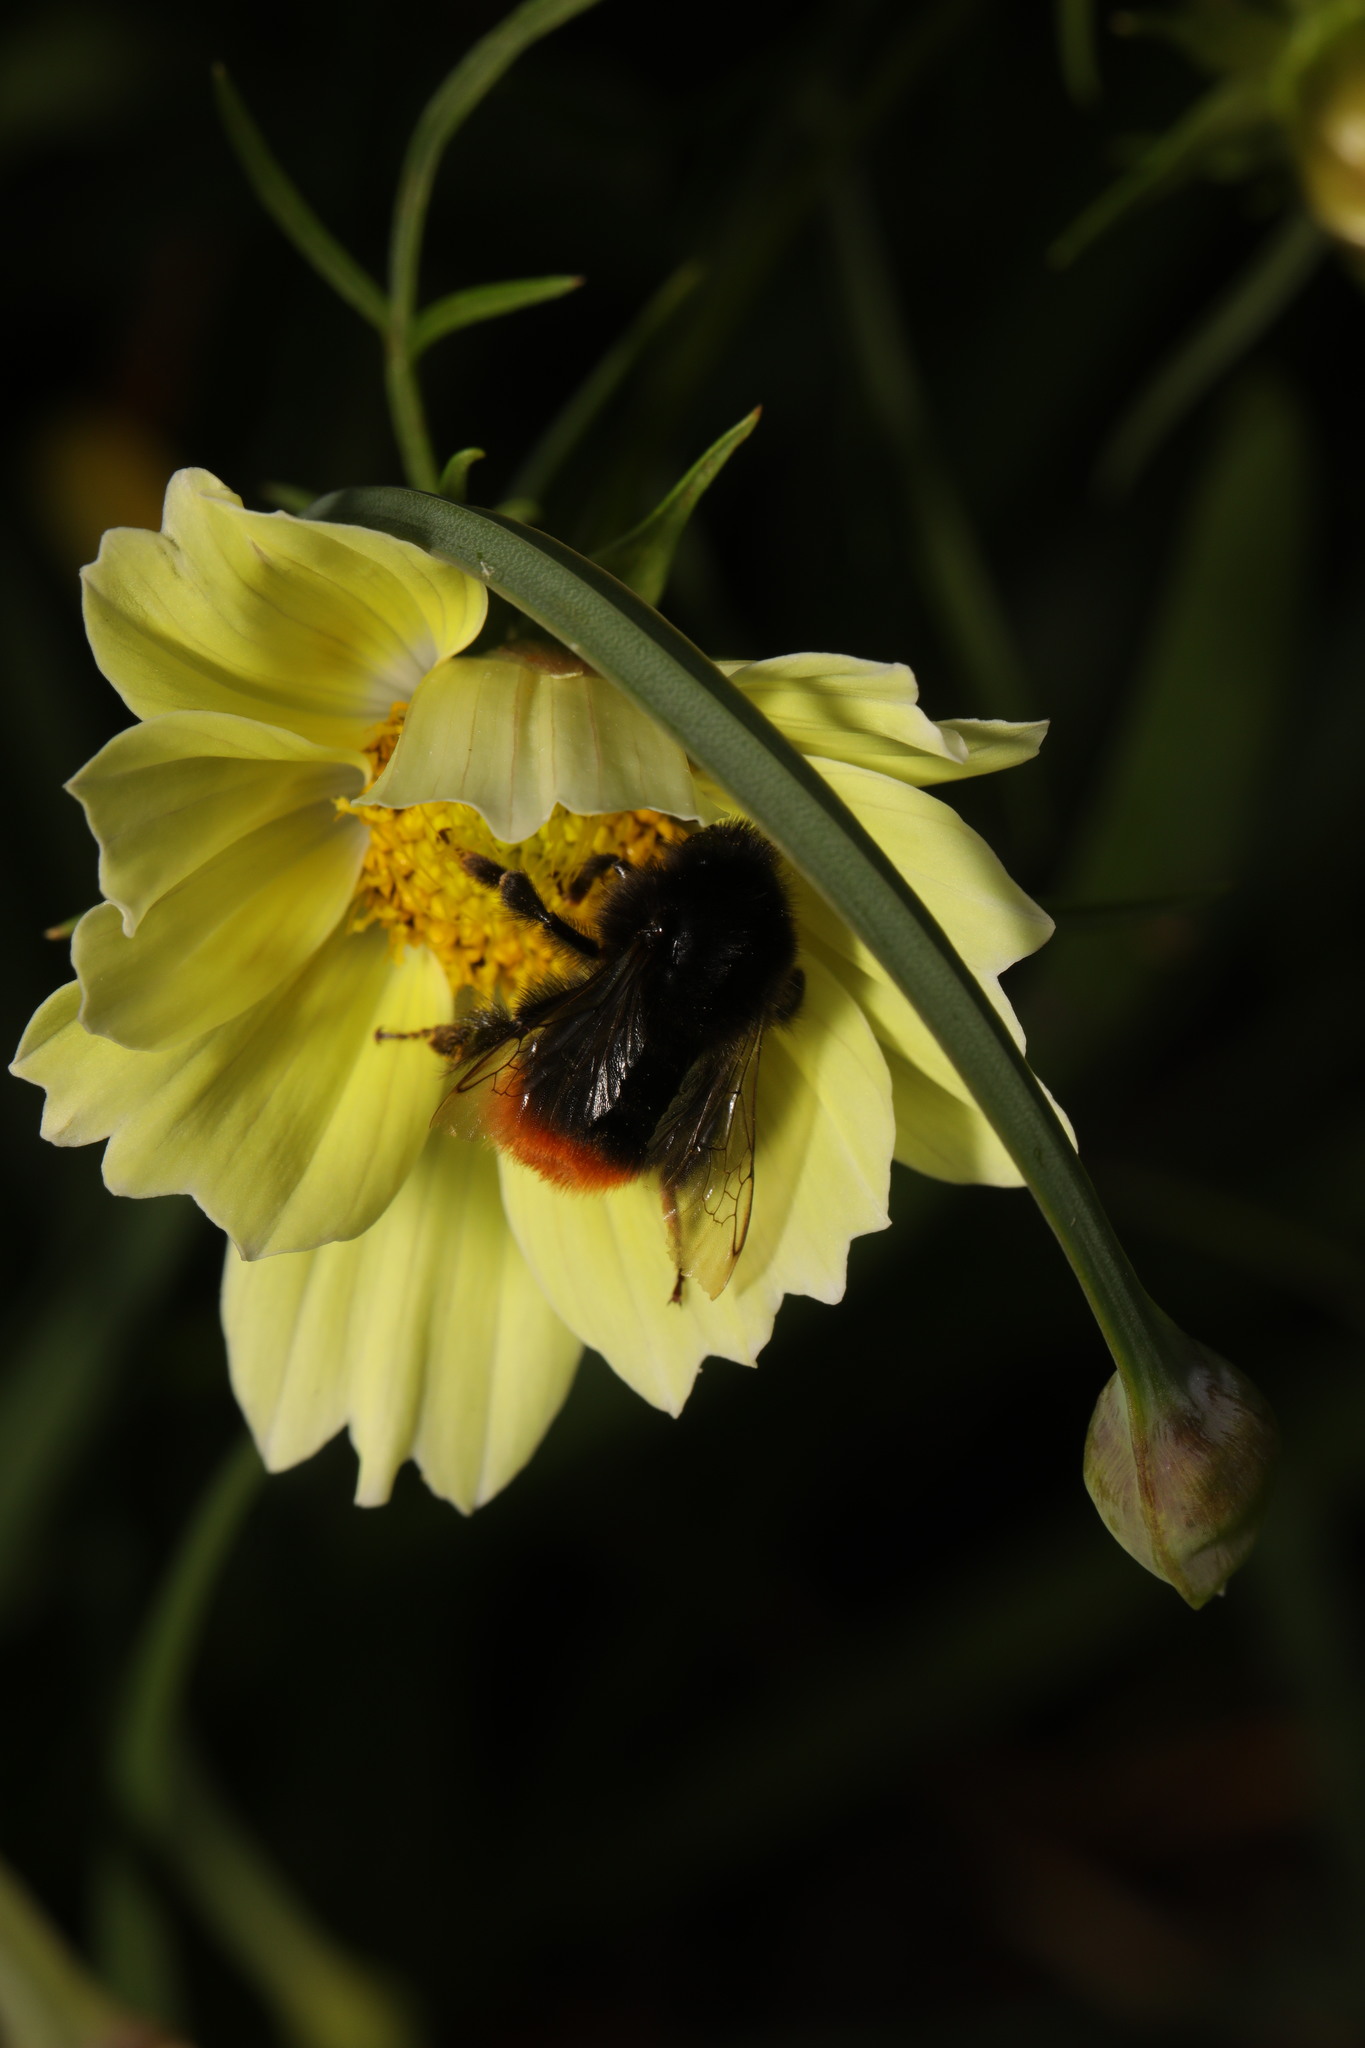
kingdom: Animalia
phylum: Arthropoda
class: Insecta
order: Hymenoptera
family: Apidae
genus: Bombus
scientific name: Bombus lapidarius
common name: Large red-tailed humble-bee
